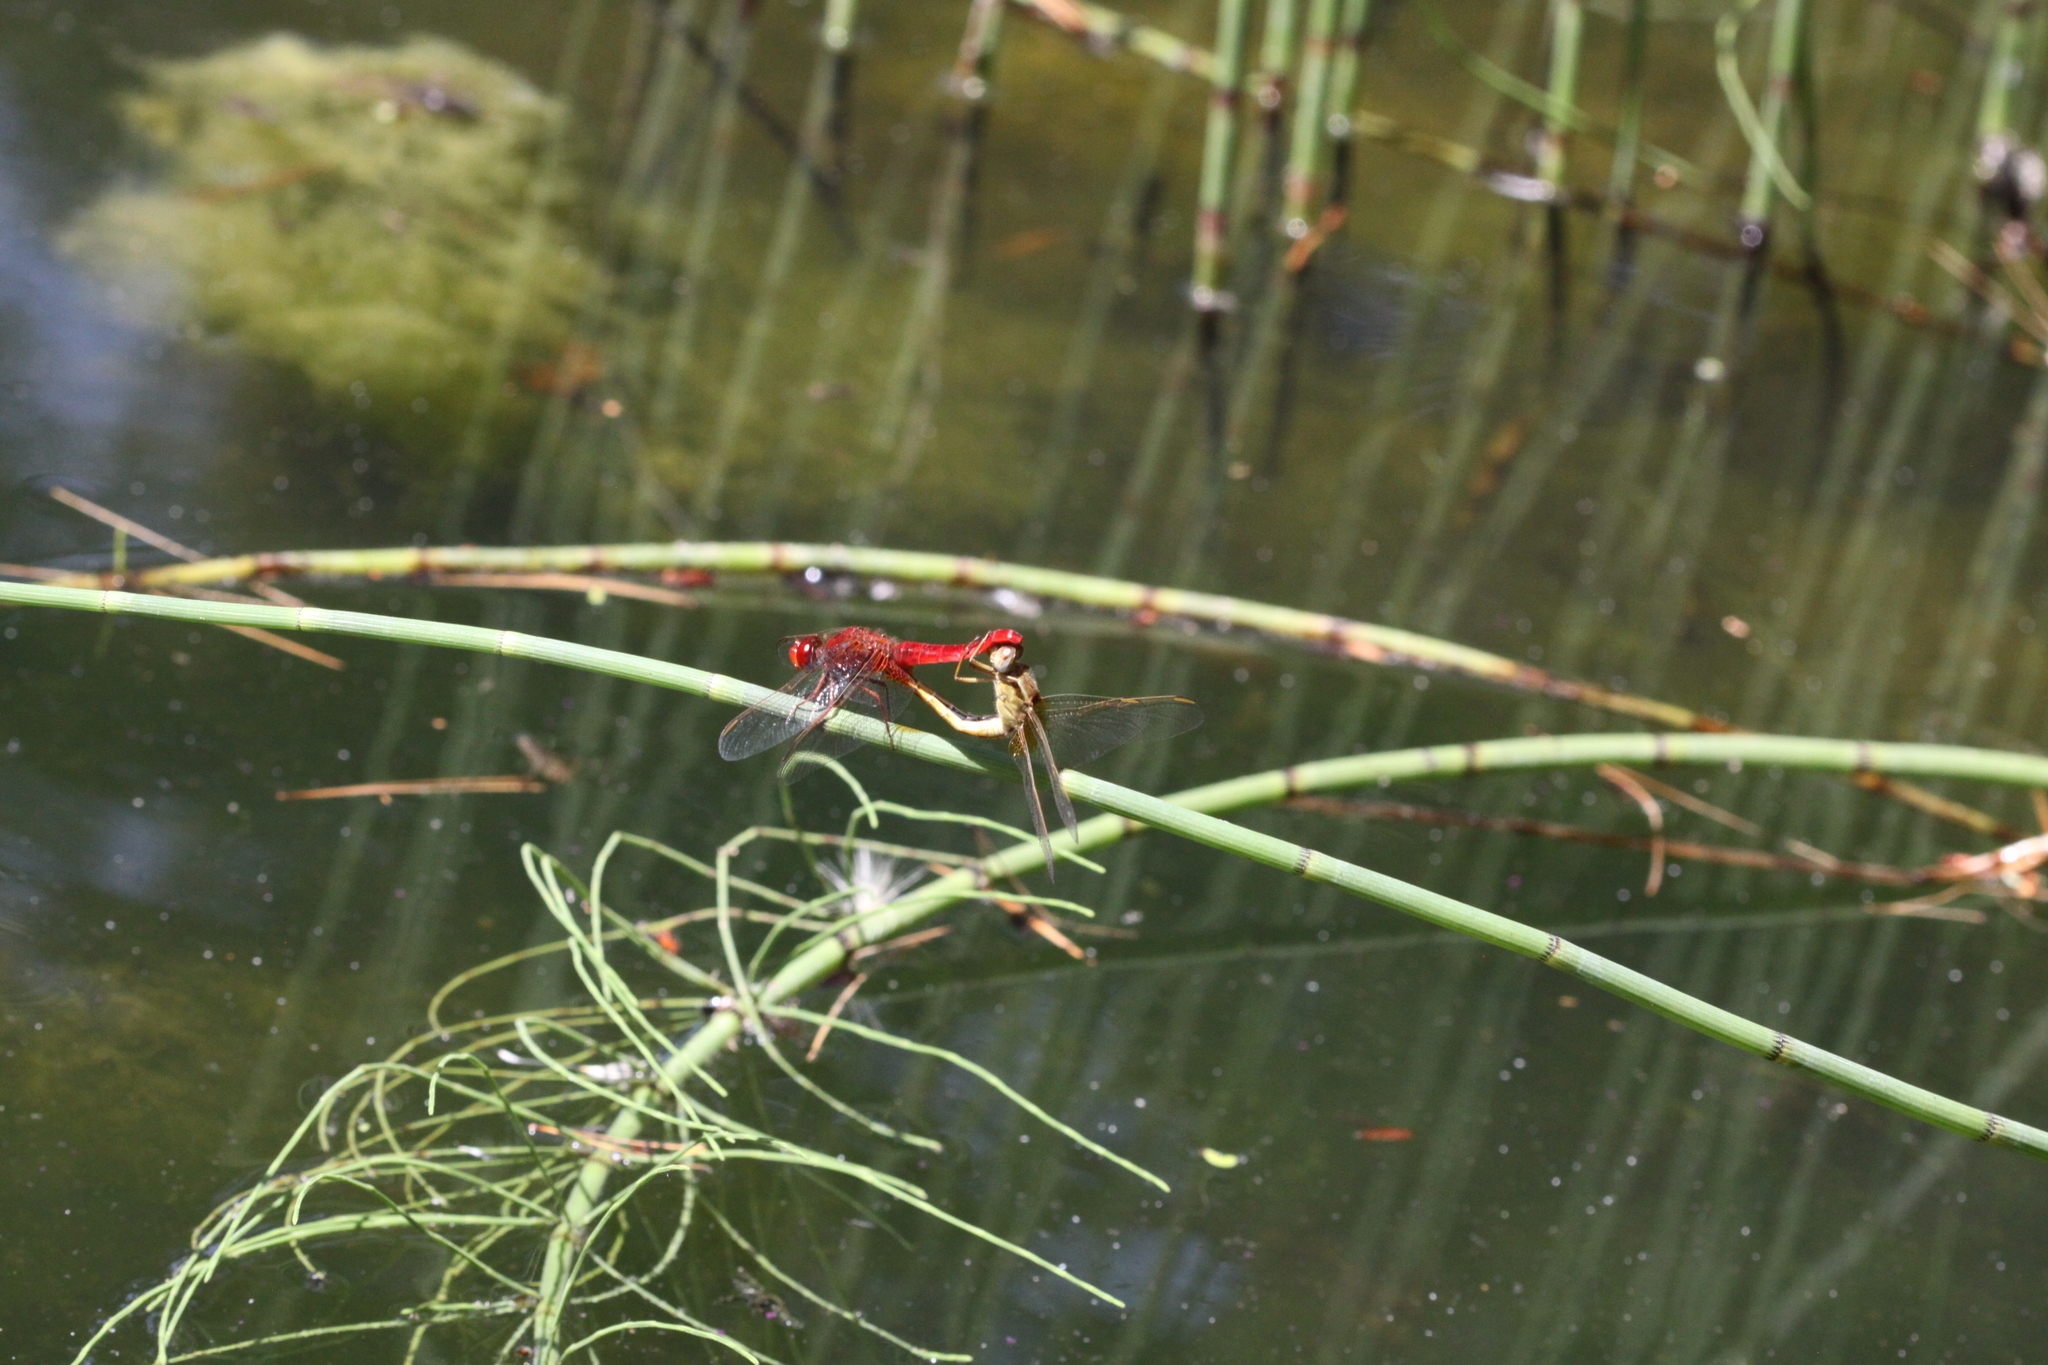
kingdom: Animalia
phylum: Arthropoda
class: Insecta
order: Odonata
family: Libellulidae
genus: Crocothemis
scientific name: Crocothemis erythraea
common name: Scarlet dragonfly
